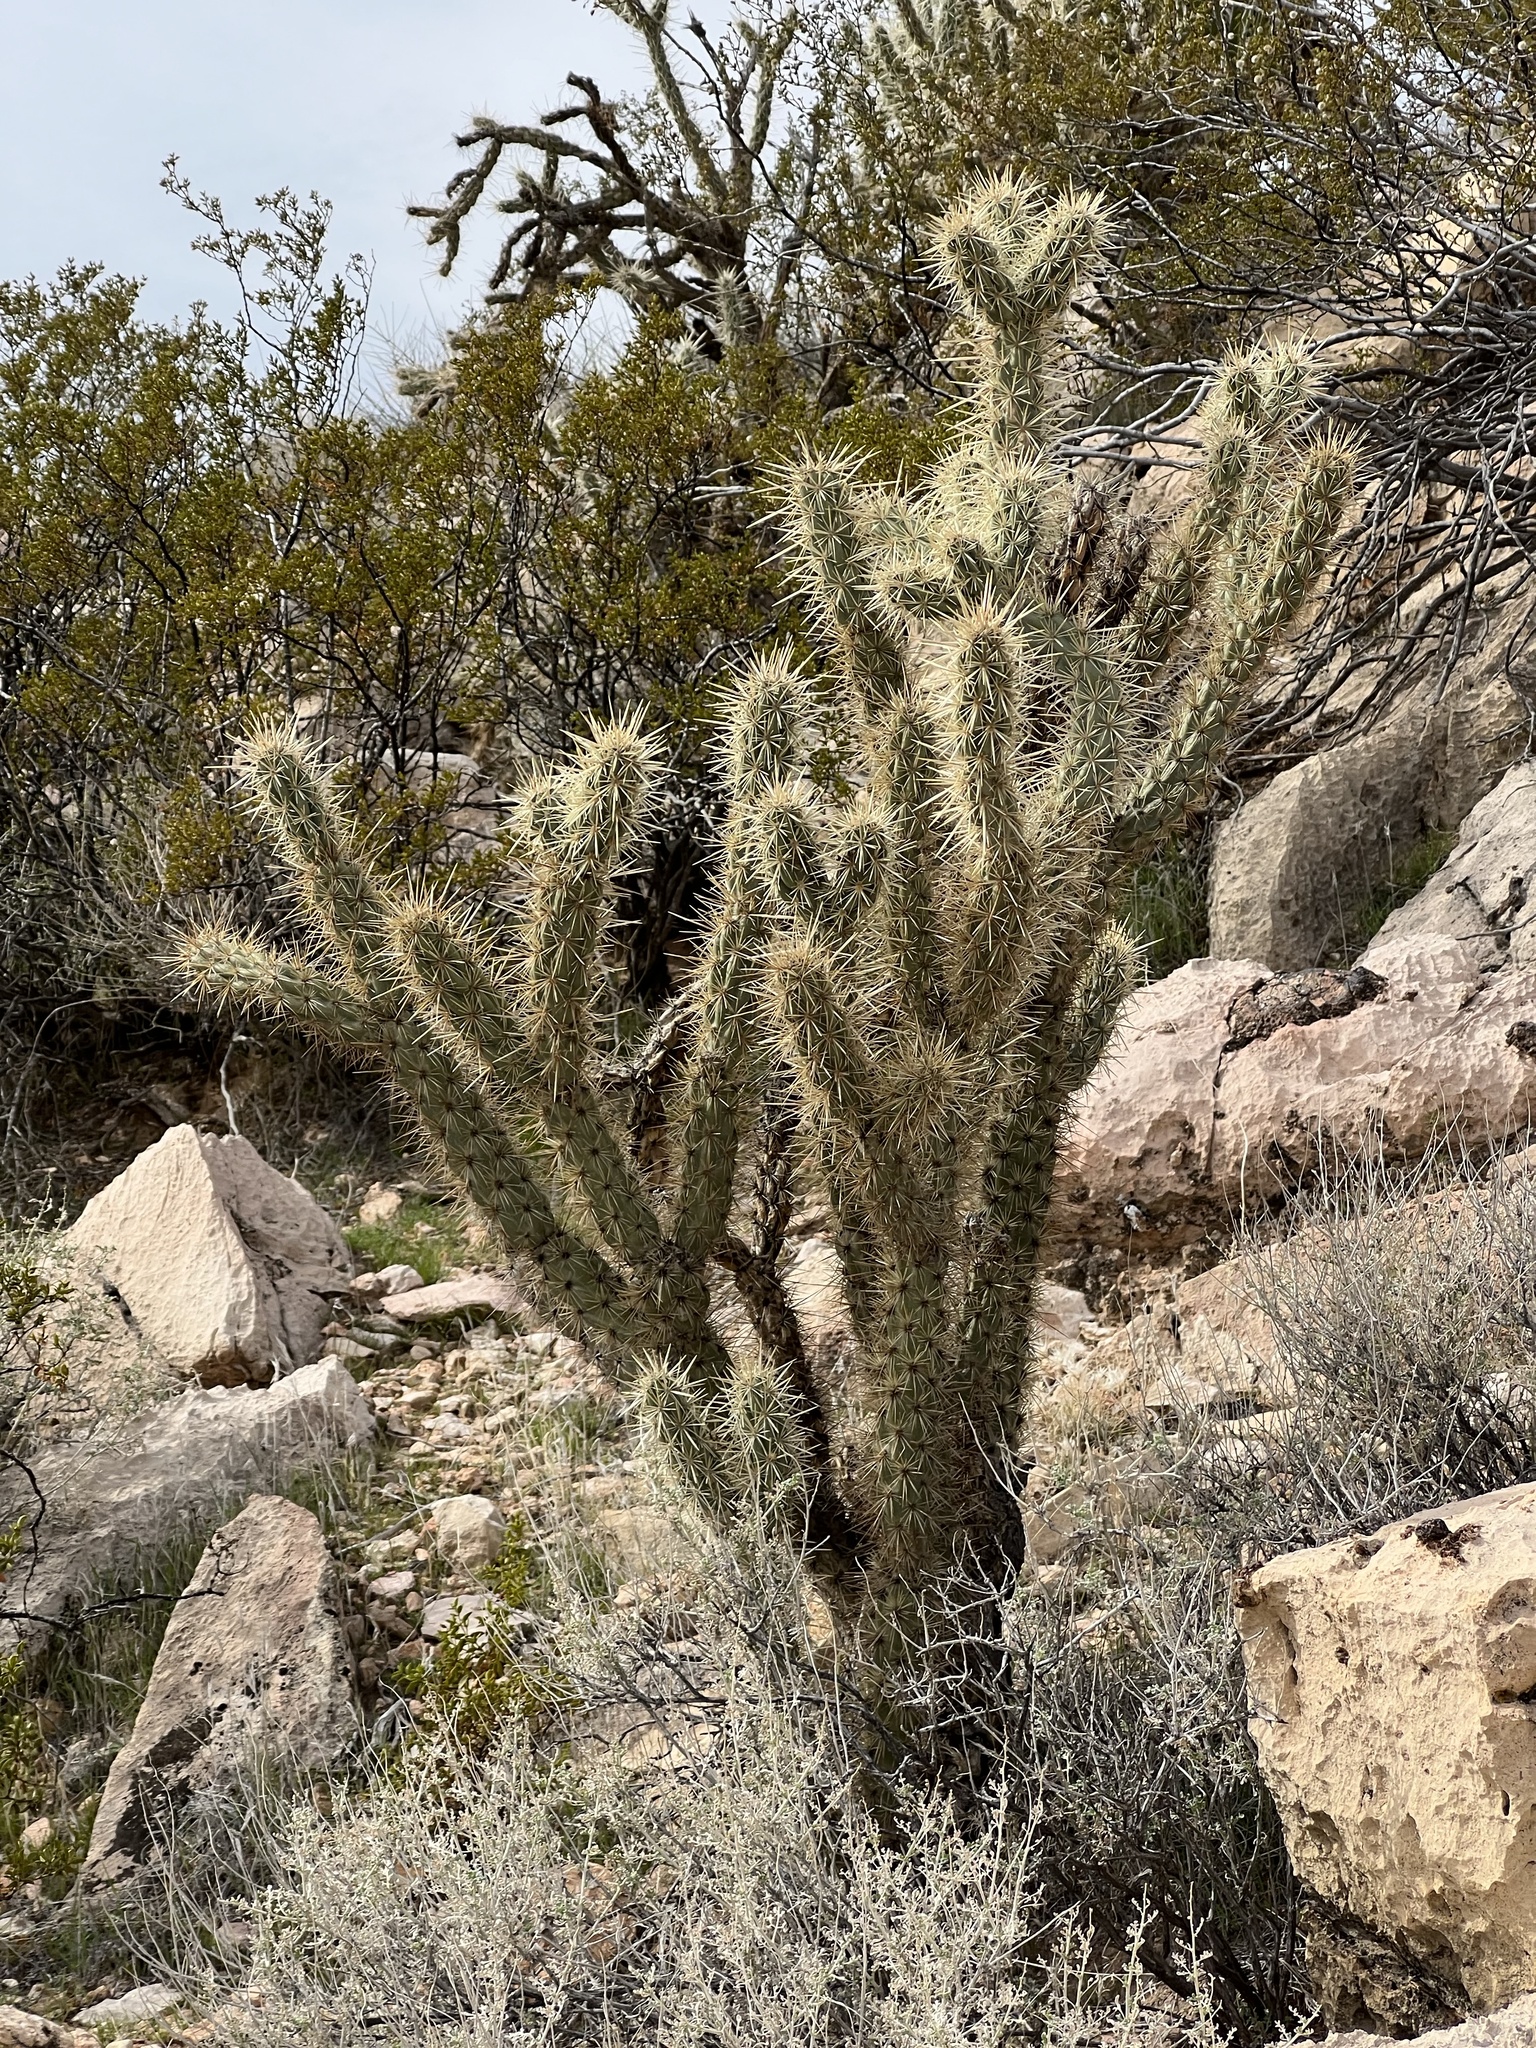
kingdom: Plantae
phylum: Tracheophyta
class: Magnoliopsida
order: Caryophyllales
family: Cactaceae
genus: Cylindropuntia
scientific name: Cylindropuntia acanthocarpa
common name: Buckhorn cholla
